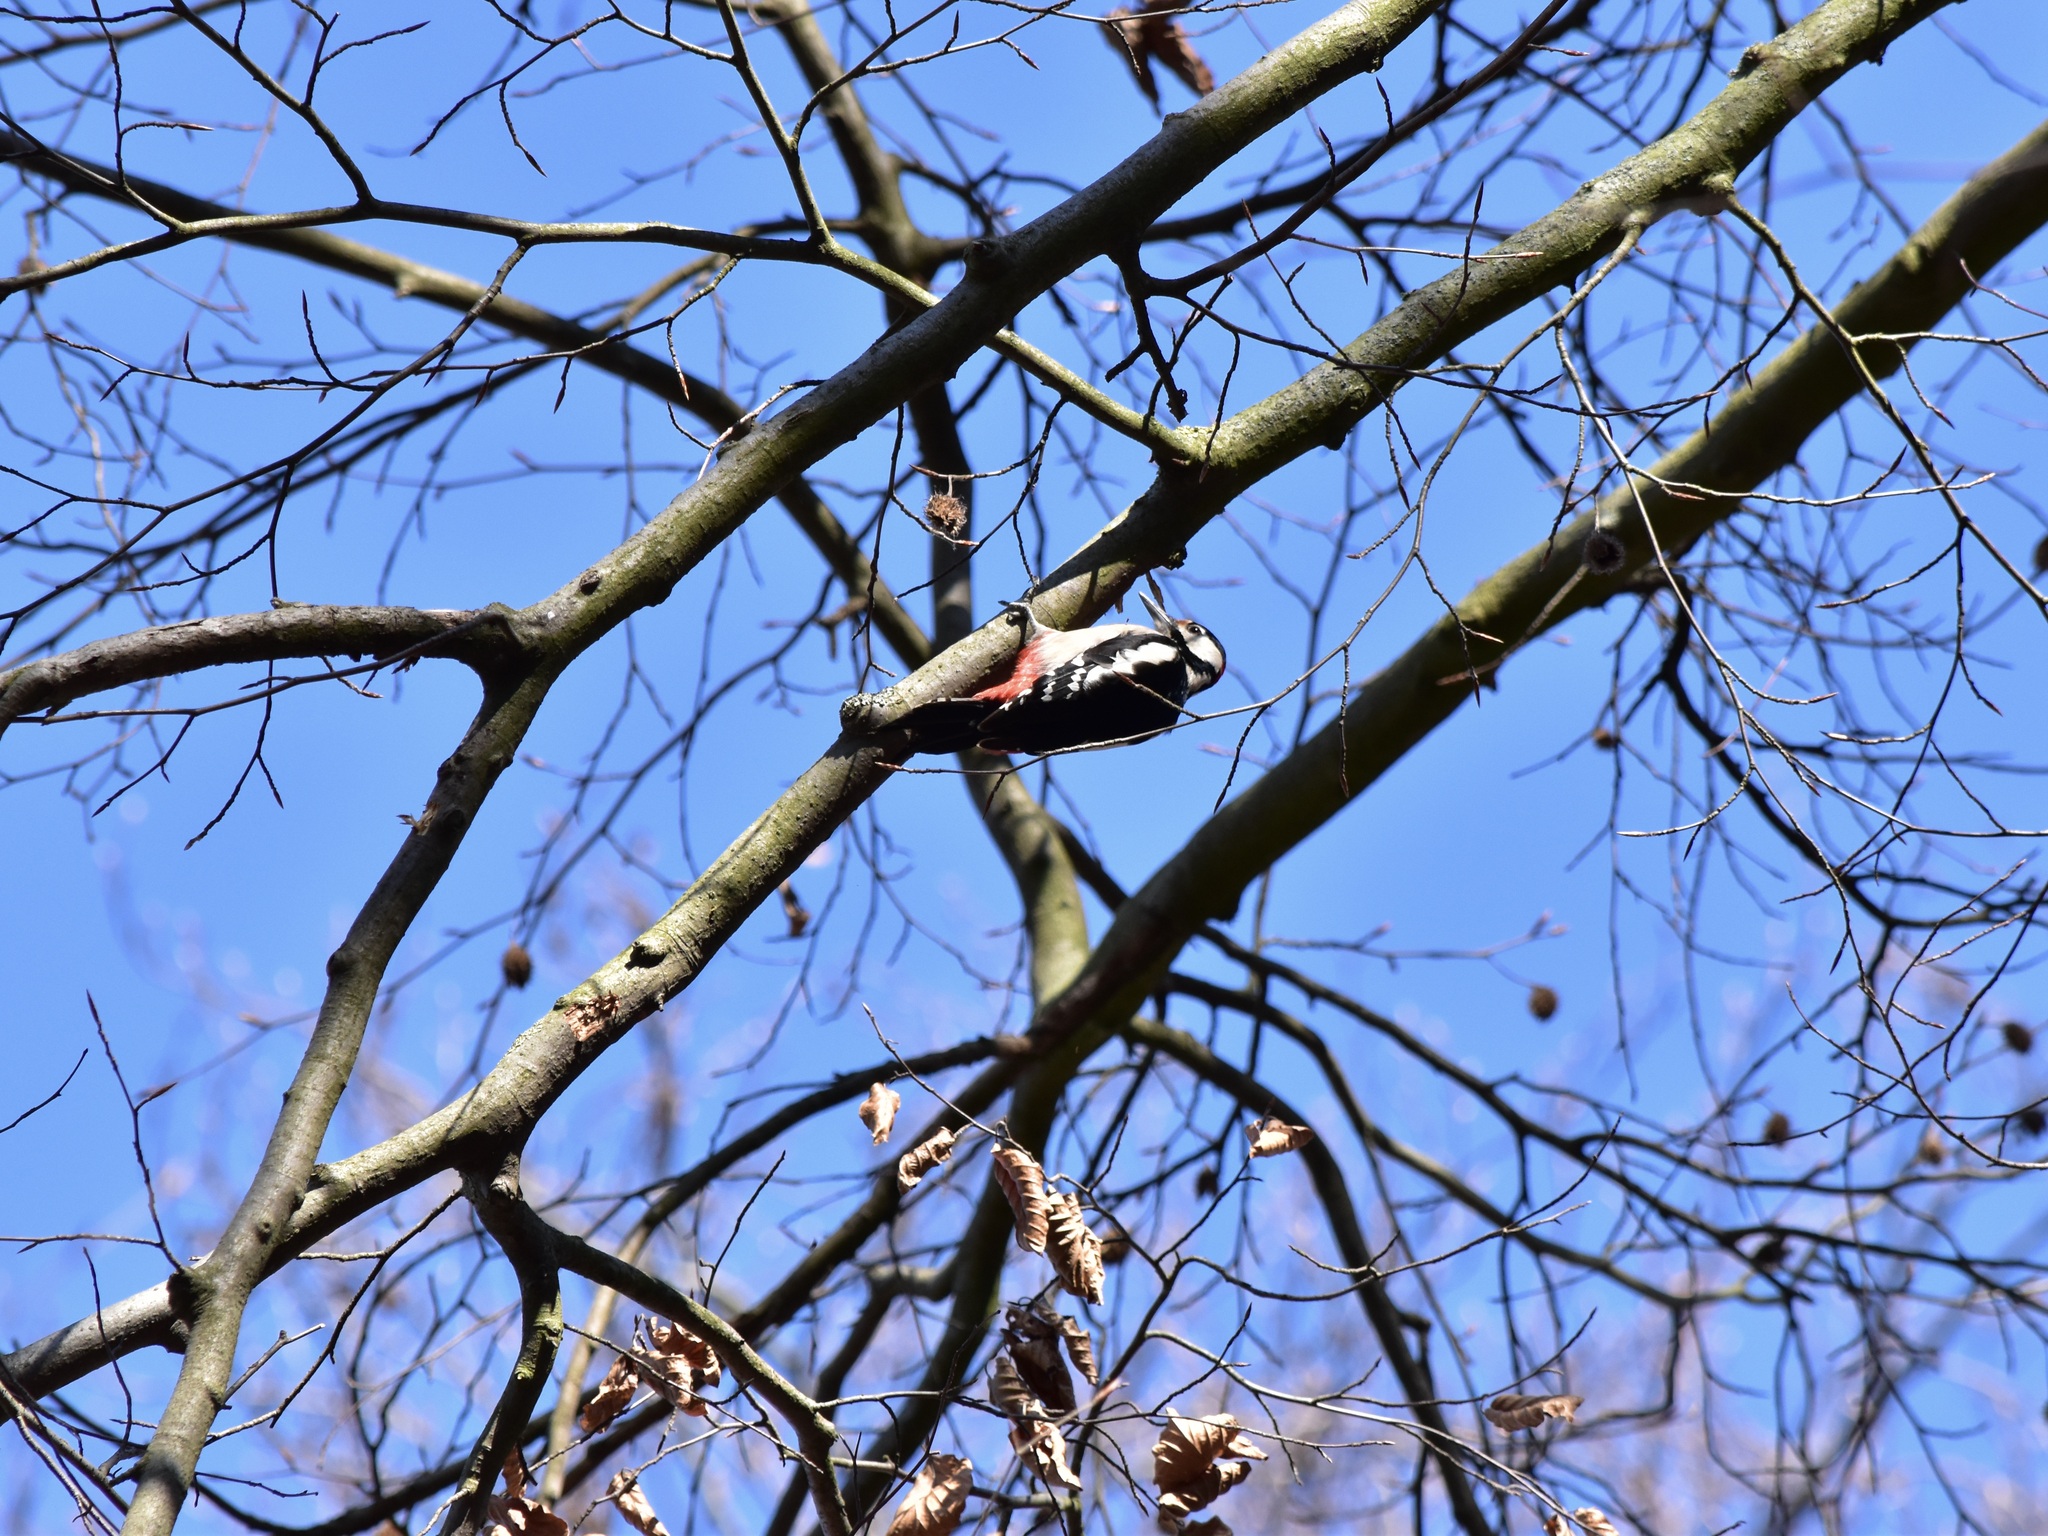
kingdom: Animalia
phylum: Chordata
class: Aves
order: Piciformes
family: Picidae
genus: Dendrocopos
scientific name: Dendrocopos major
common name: Great spotted woodpecker
